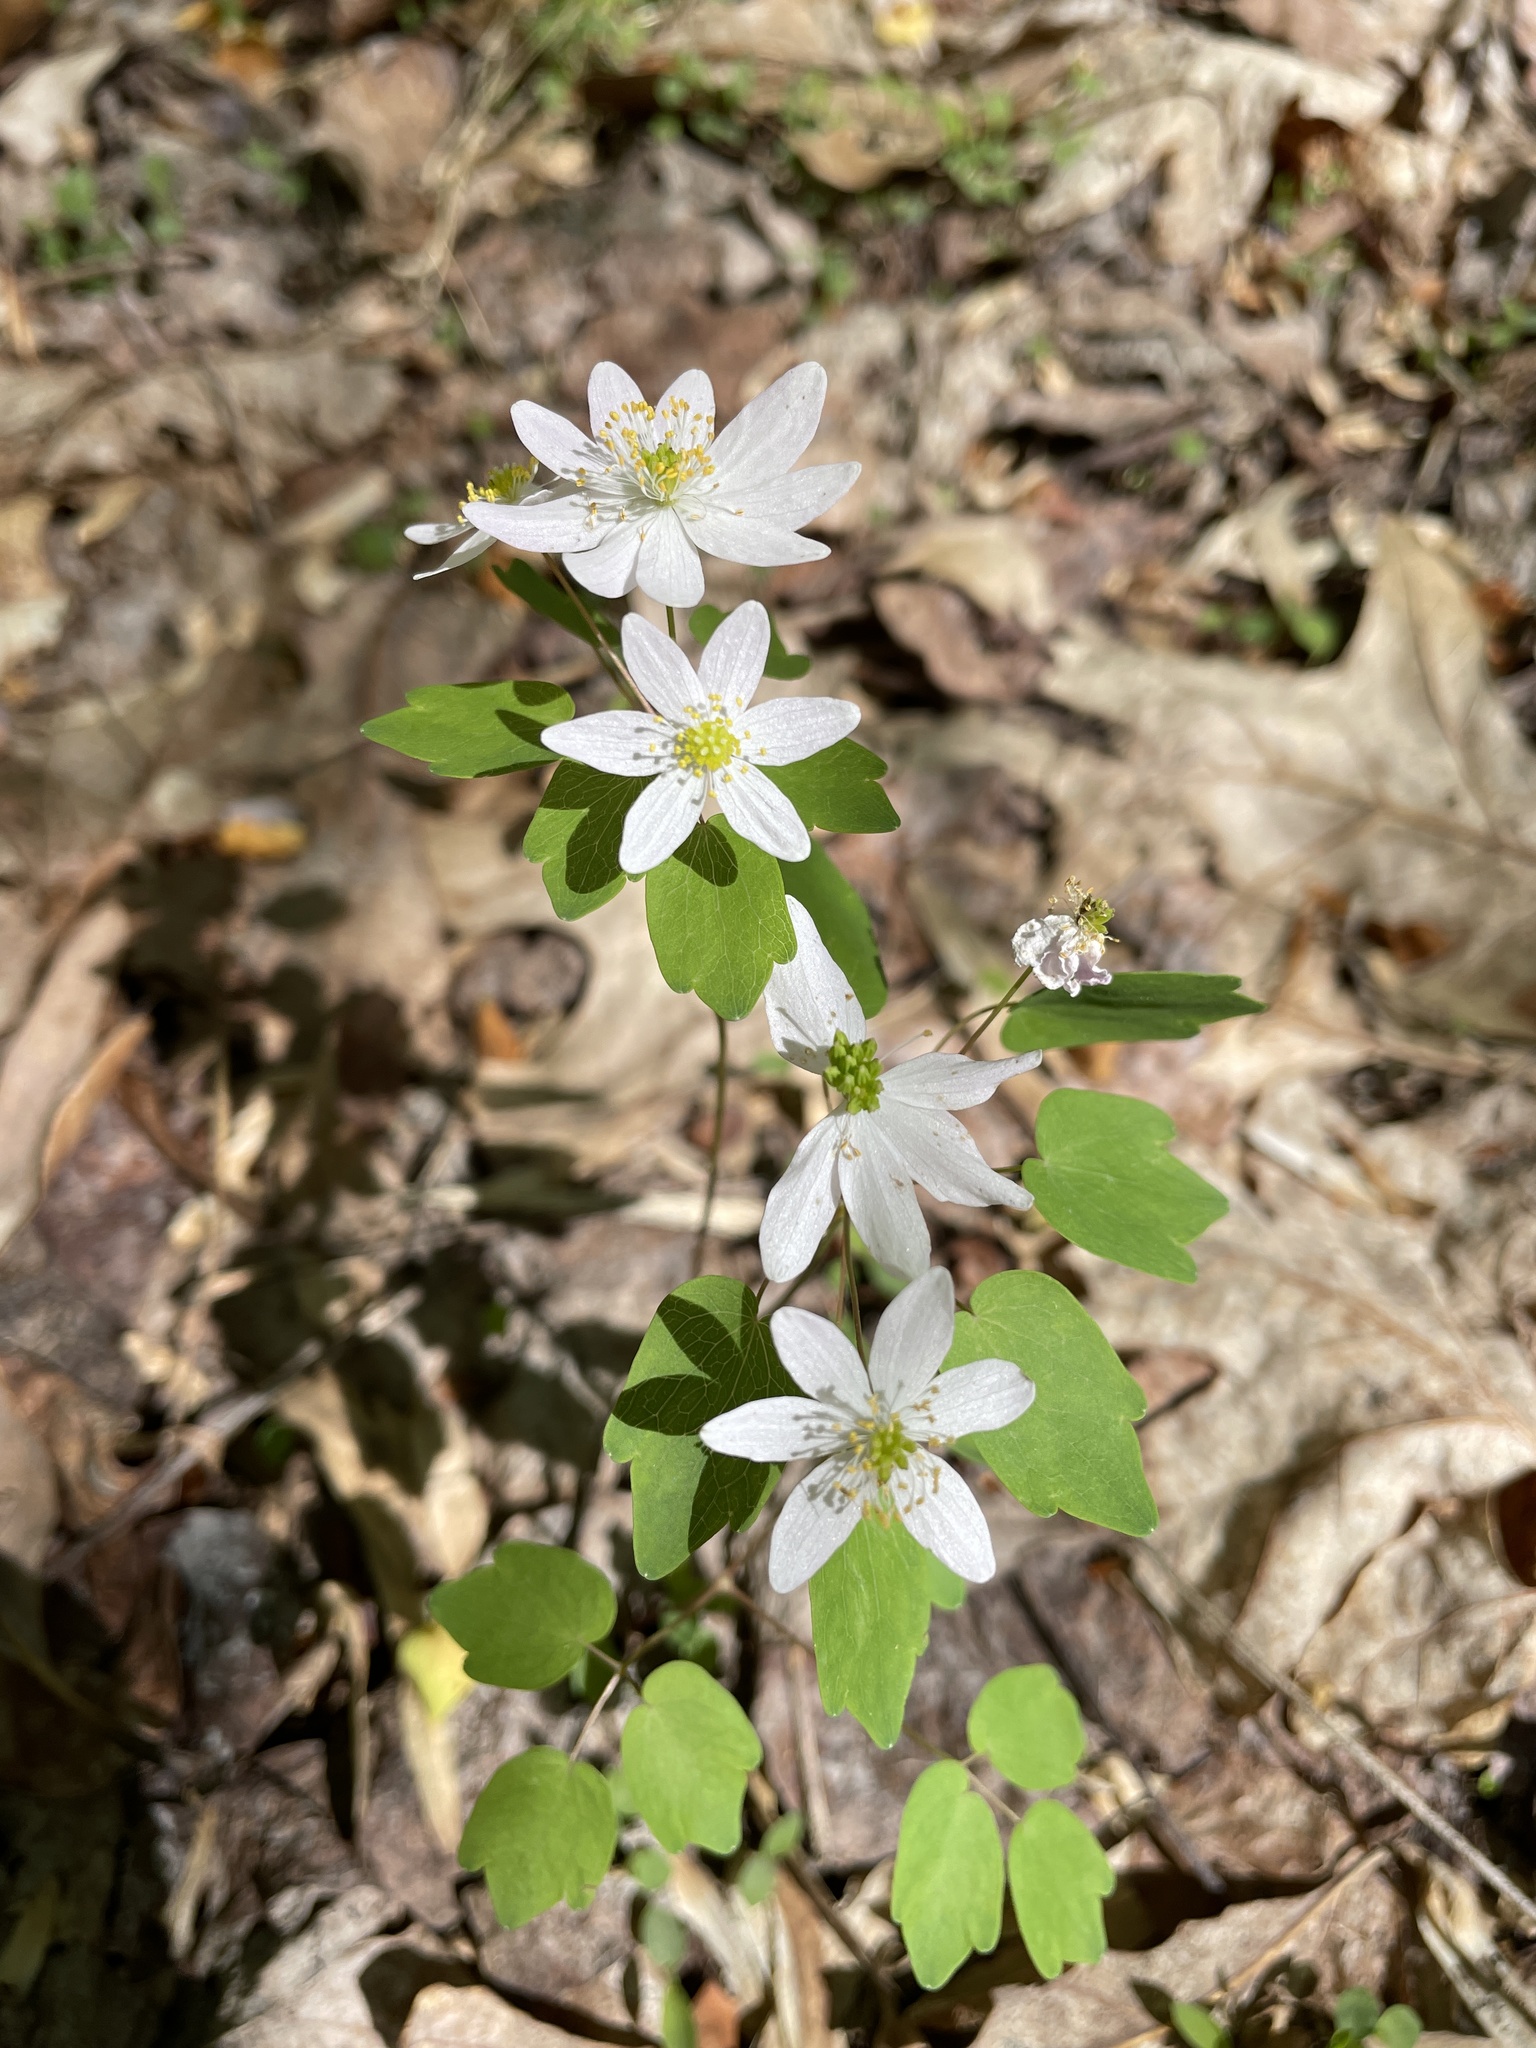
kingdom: Plantae
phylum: Tracheophyta
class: Magnoliopsida
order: Ranunculales
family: Ranunculaceae
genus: Thalictrum
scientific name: Thalictrum thalictroides
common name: Rue-anemone
